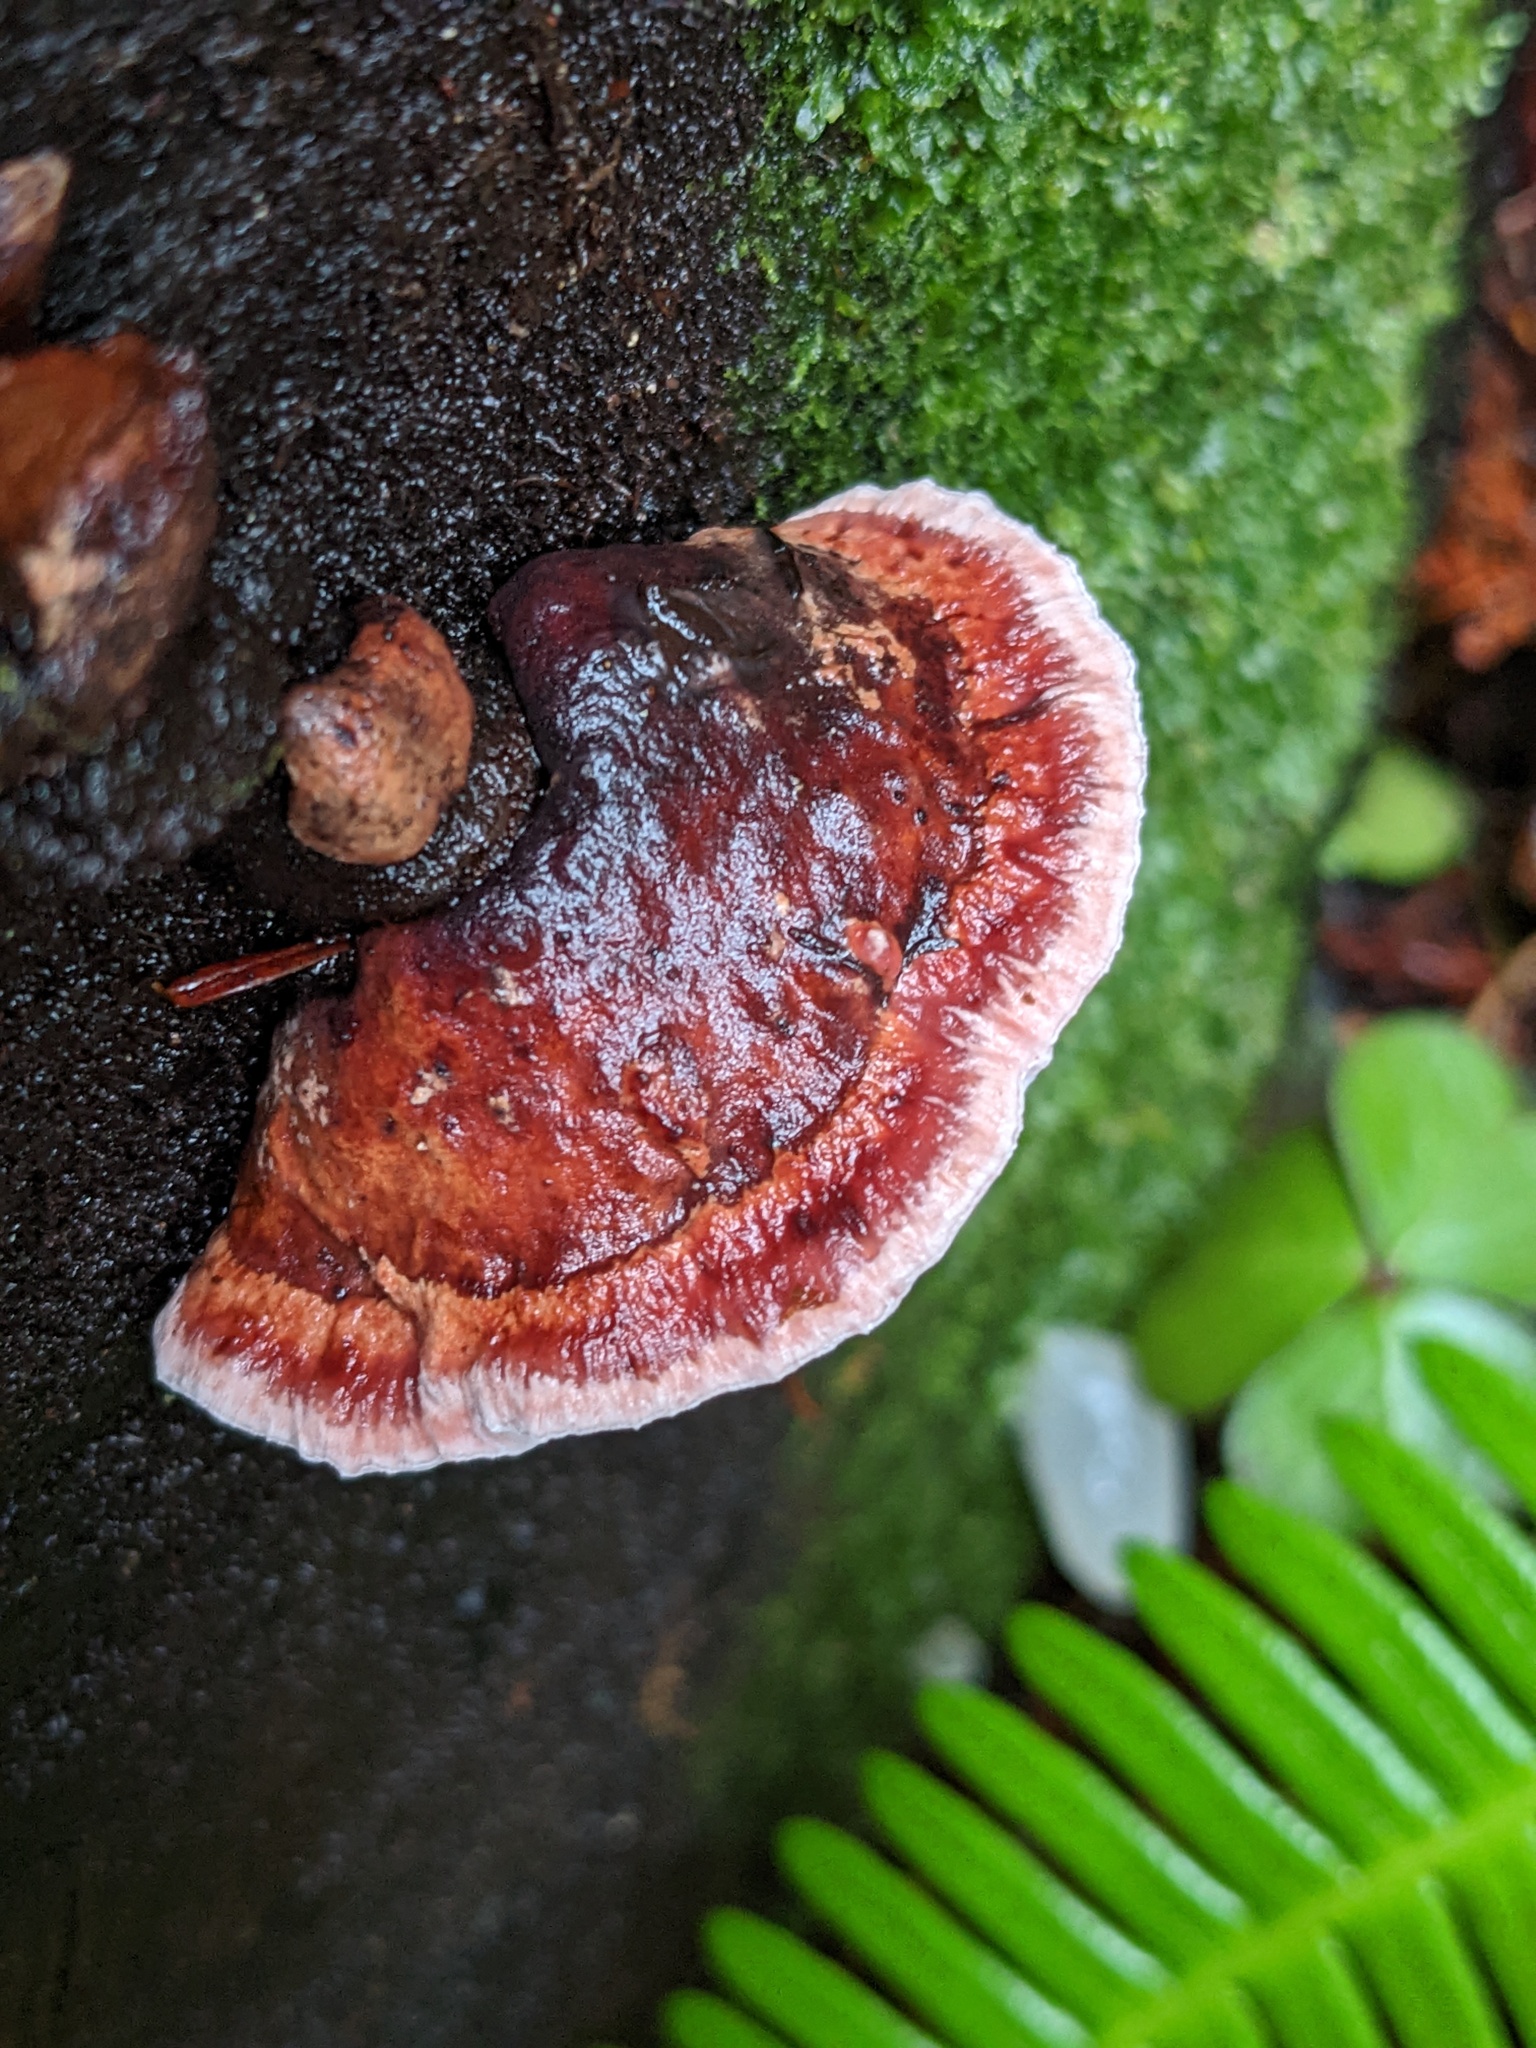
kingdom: Fungi
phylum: Basidiomycota
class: Agaricomycetes
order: Polyporales
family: Fomitopsidaceae
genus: Rhodofomes
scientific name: Rhodofomes cajanderi
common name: Rosy conk
